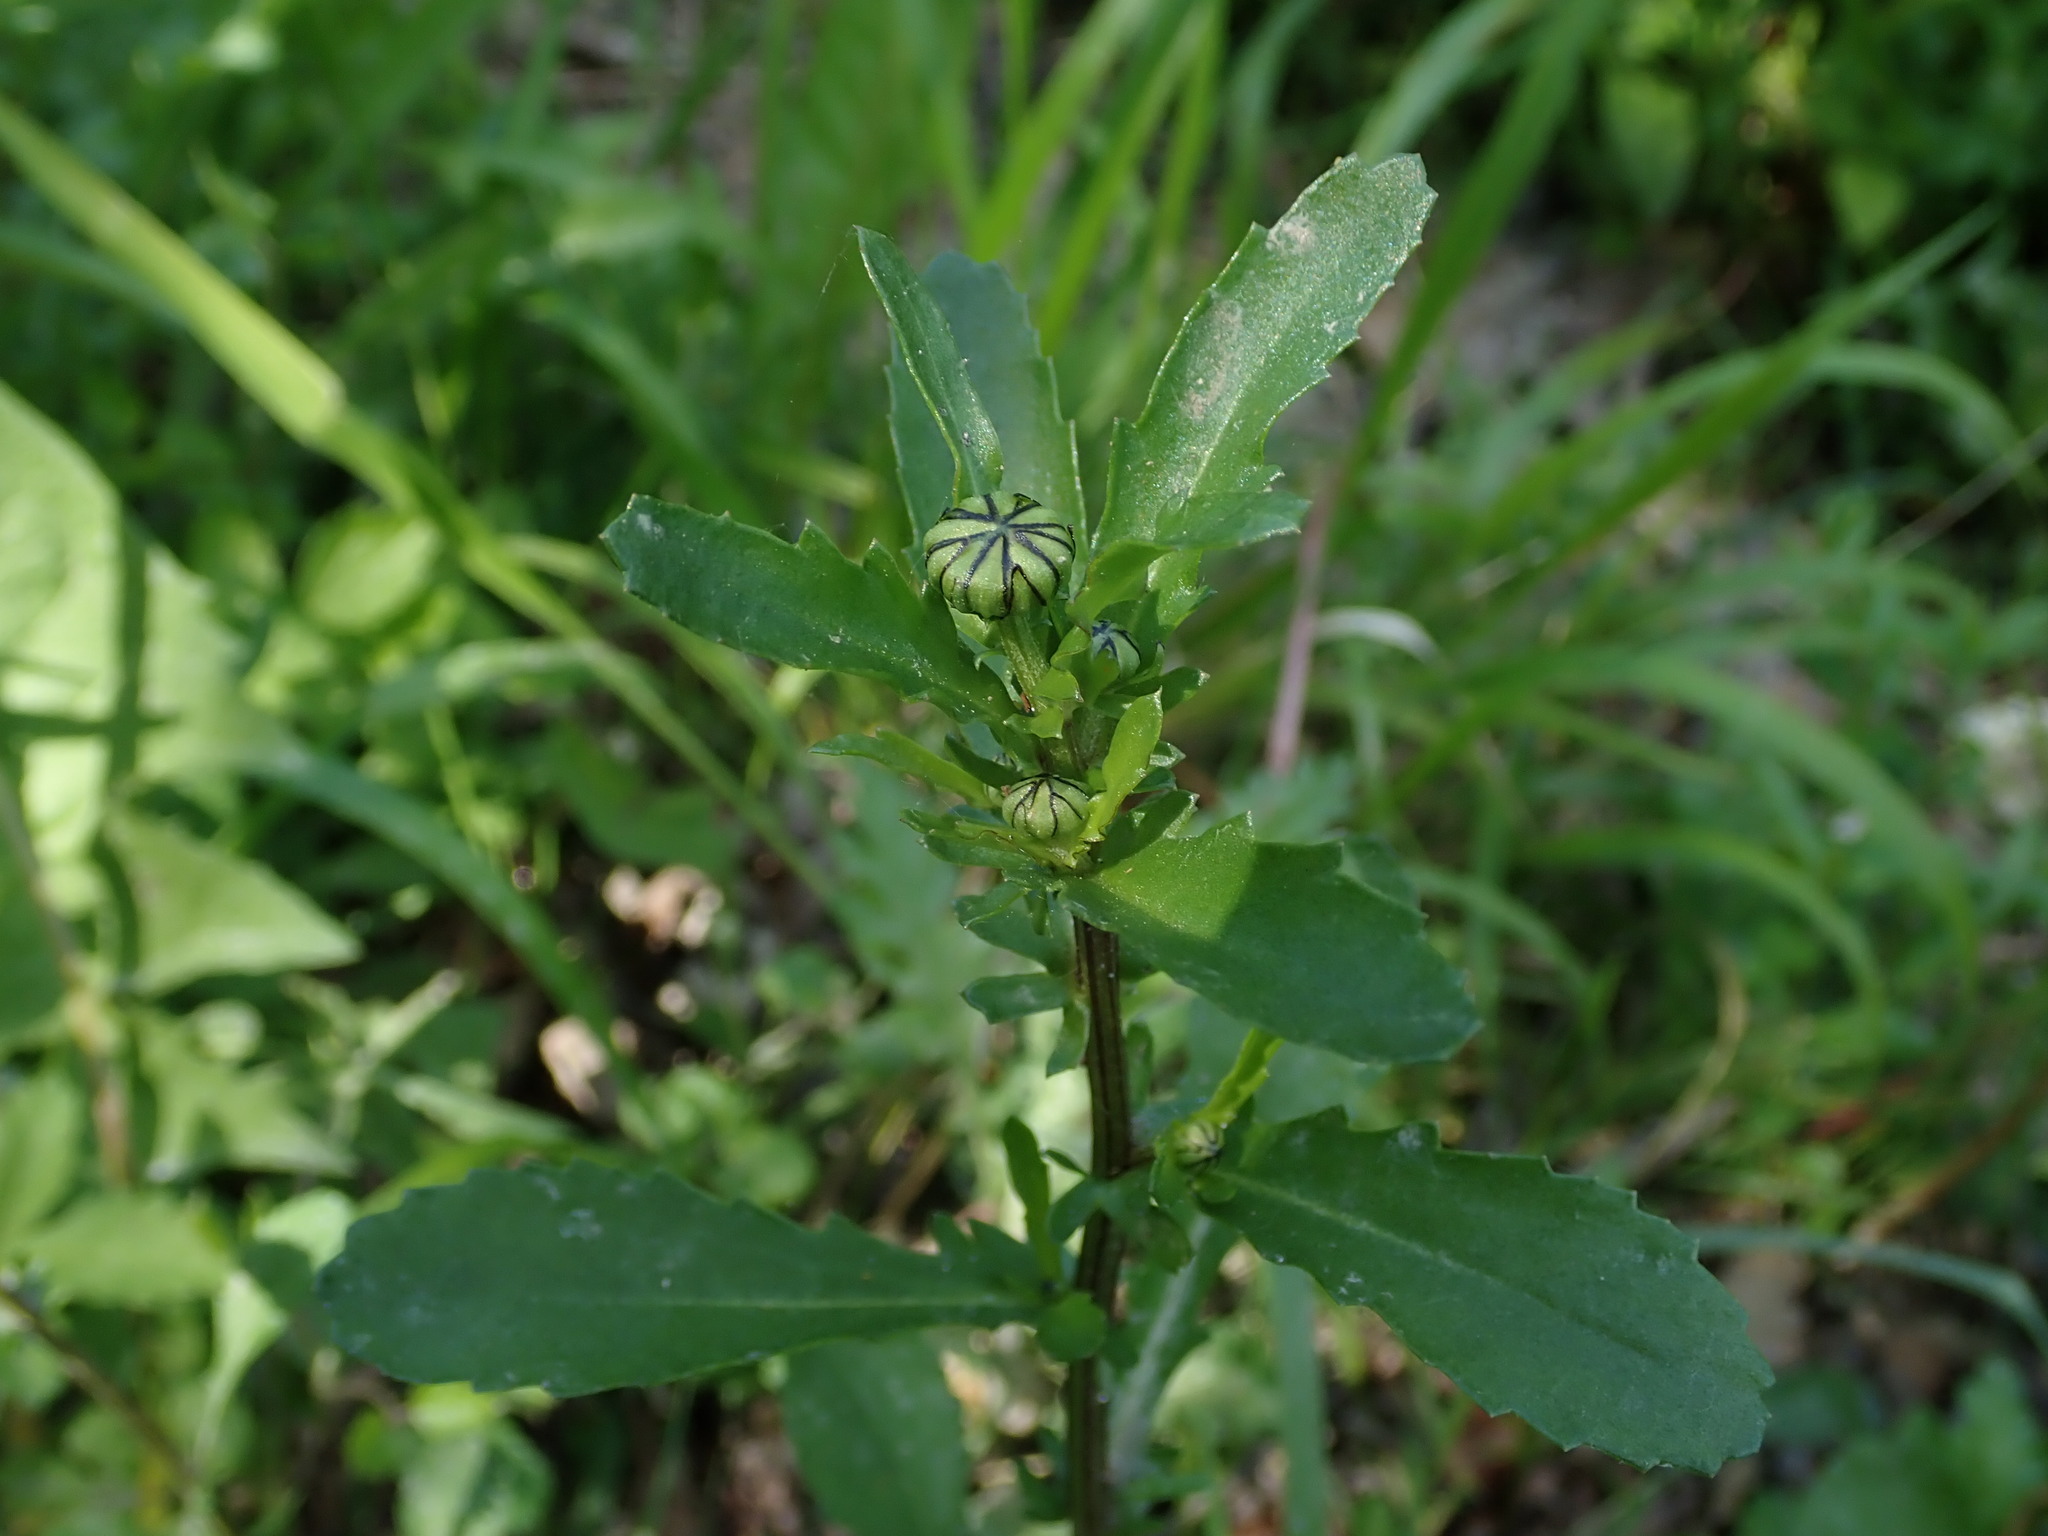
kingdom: Plantae
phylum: Tracheophyta
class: Magnoliopsida
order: Asterales
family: Asteraceae
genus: Leucanthemum
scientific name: Leucanthemum vulgare
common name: Oxeye daisy
